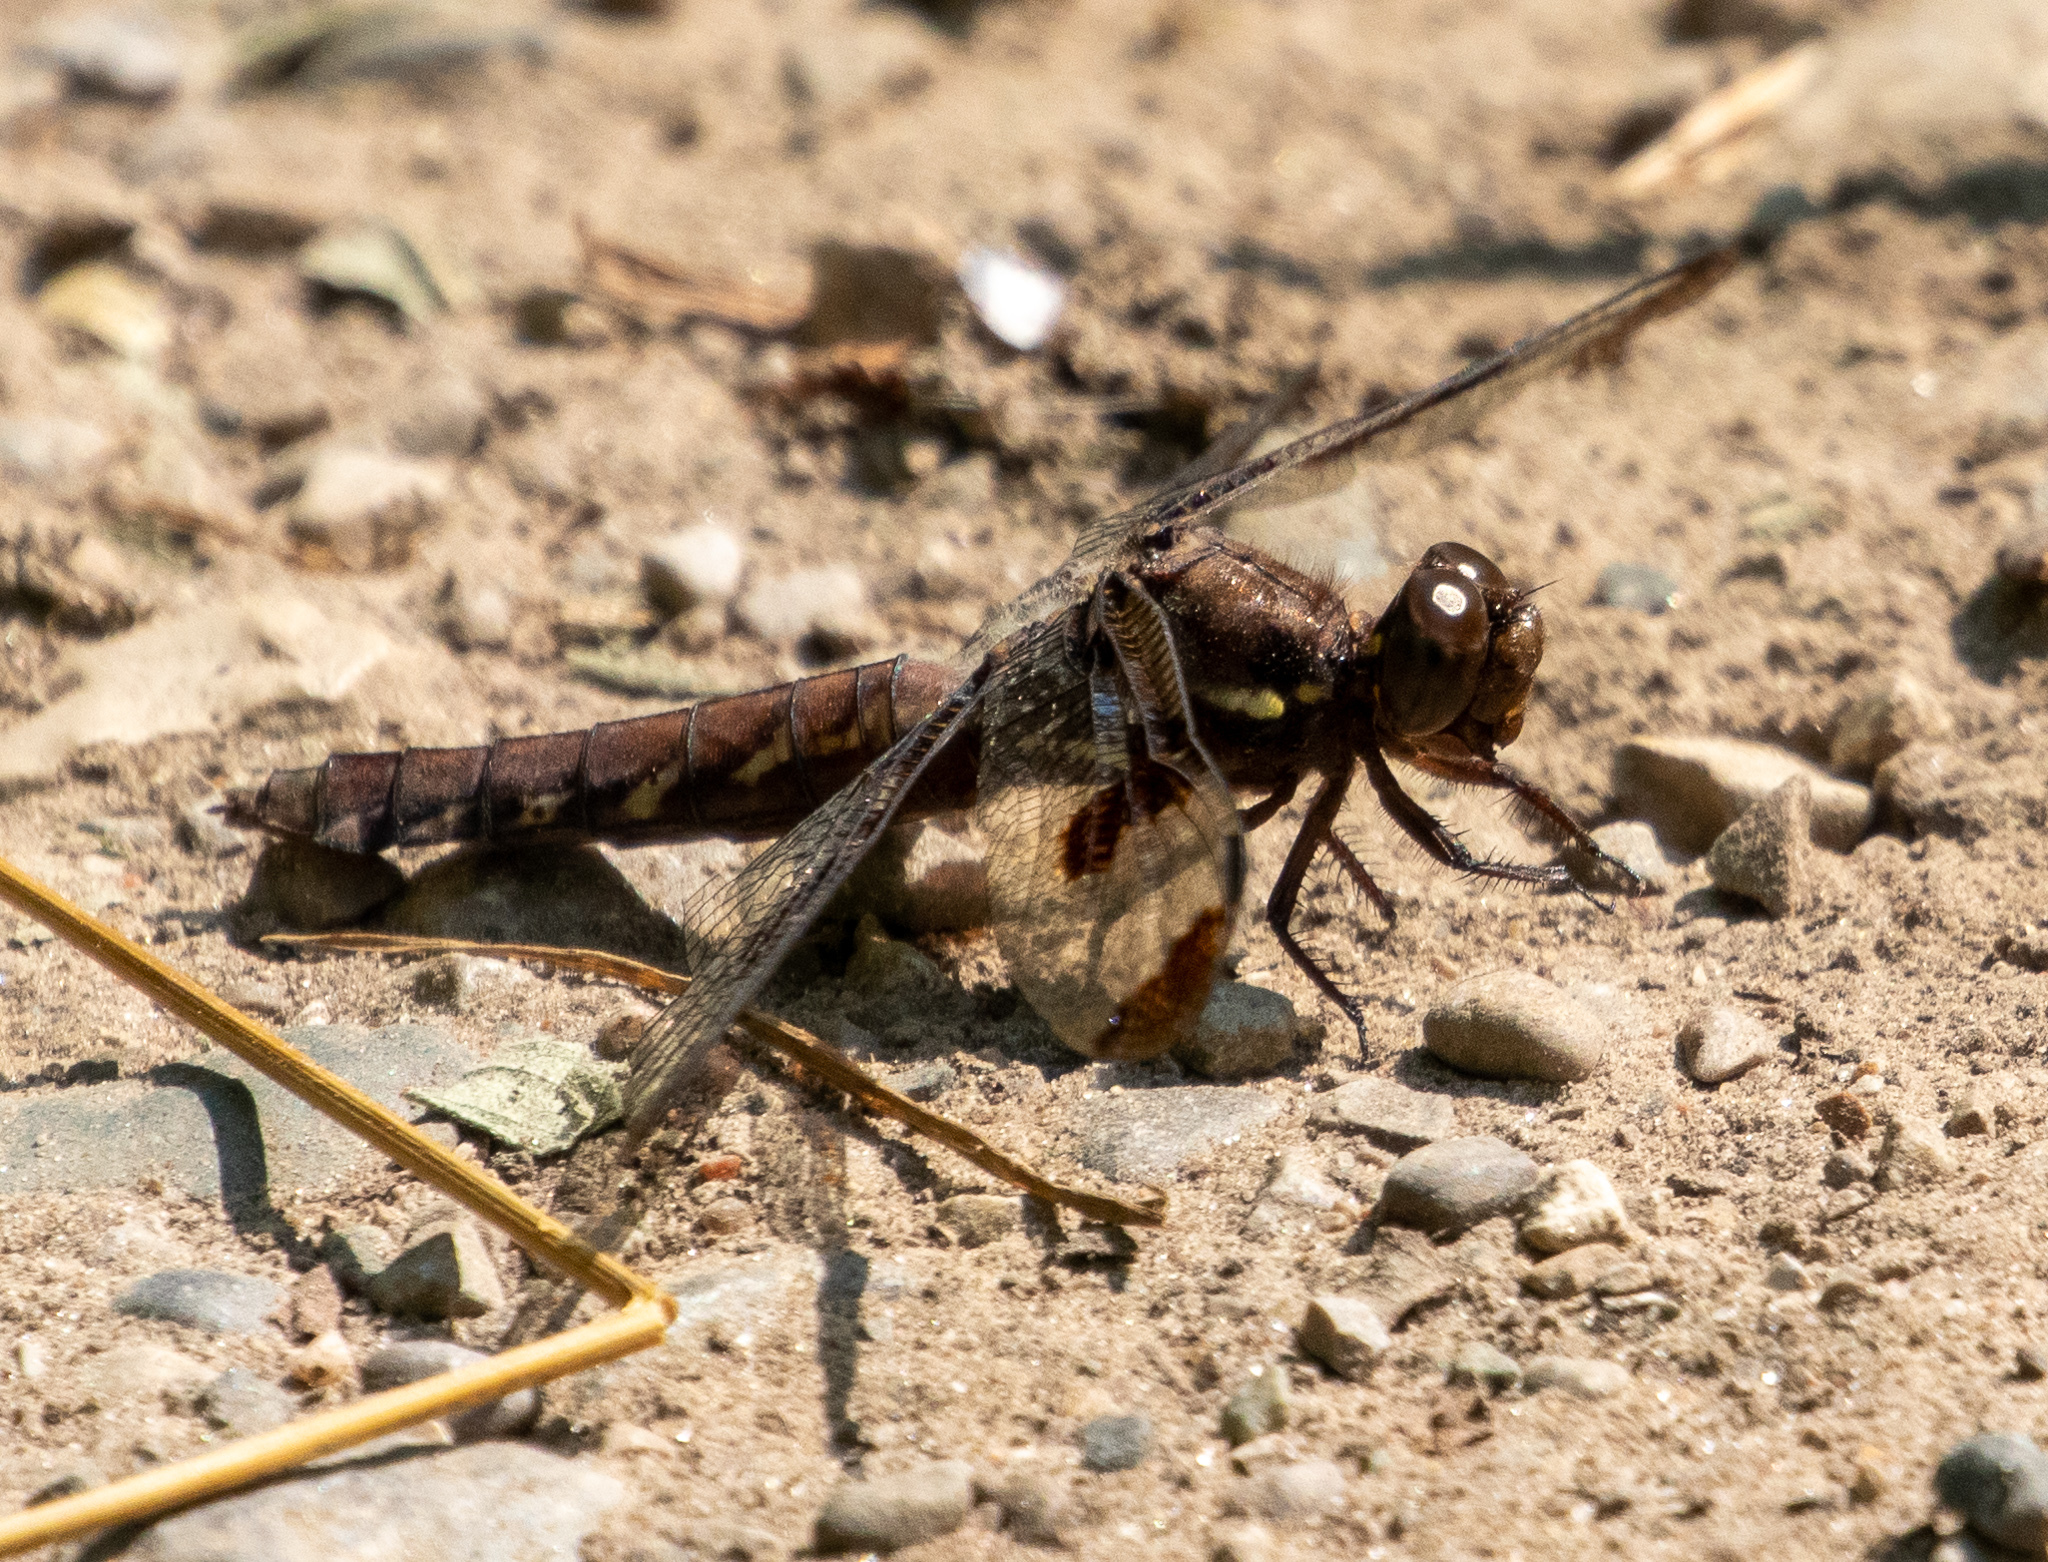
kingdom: Animalia
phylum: Arthropoda
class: Insecta
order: Odonata
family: Libellulidae
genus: Plathemis
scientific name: Plathemis lydia
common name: Common whitetail
